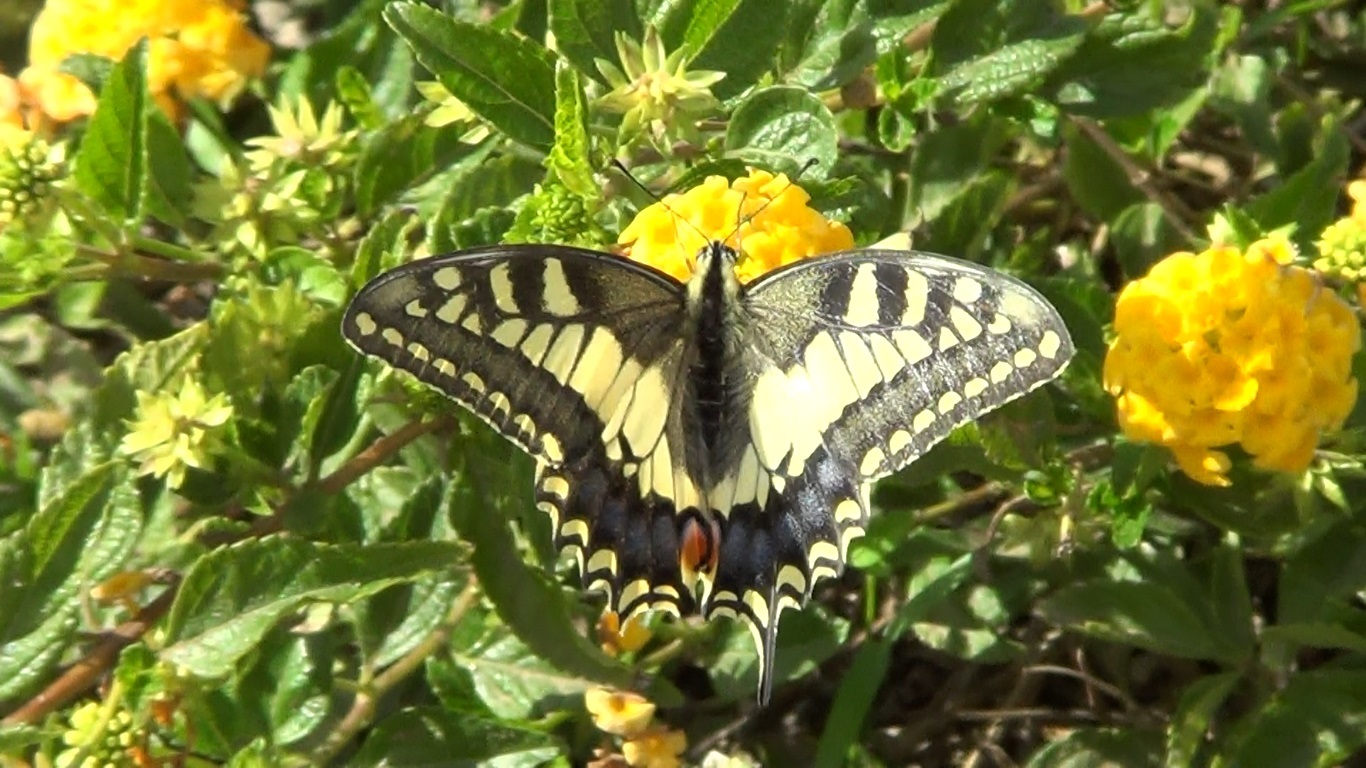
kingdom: Animalia
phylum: Arthropoda
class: Insecta
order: Lepidoptera
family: Papilionidae
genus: Papilio
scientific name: Papilio machaon
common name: Swallowtail
